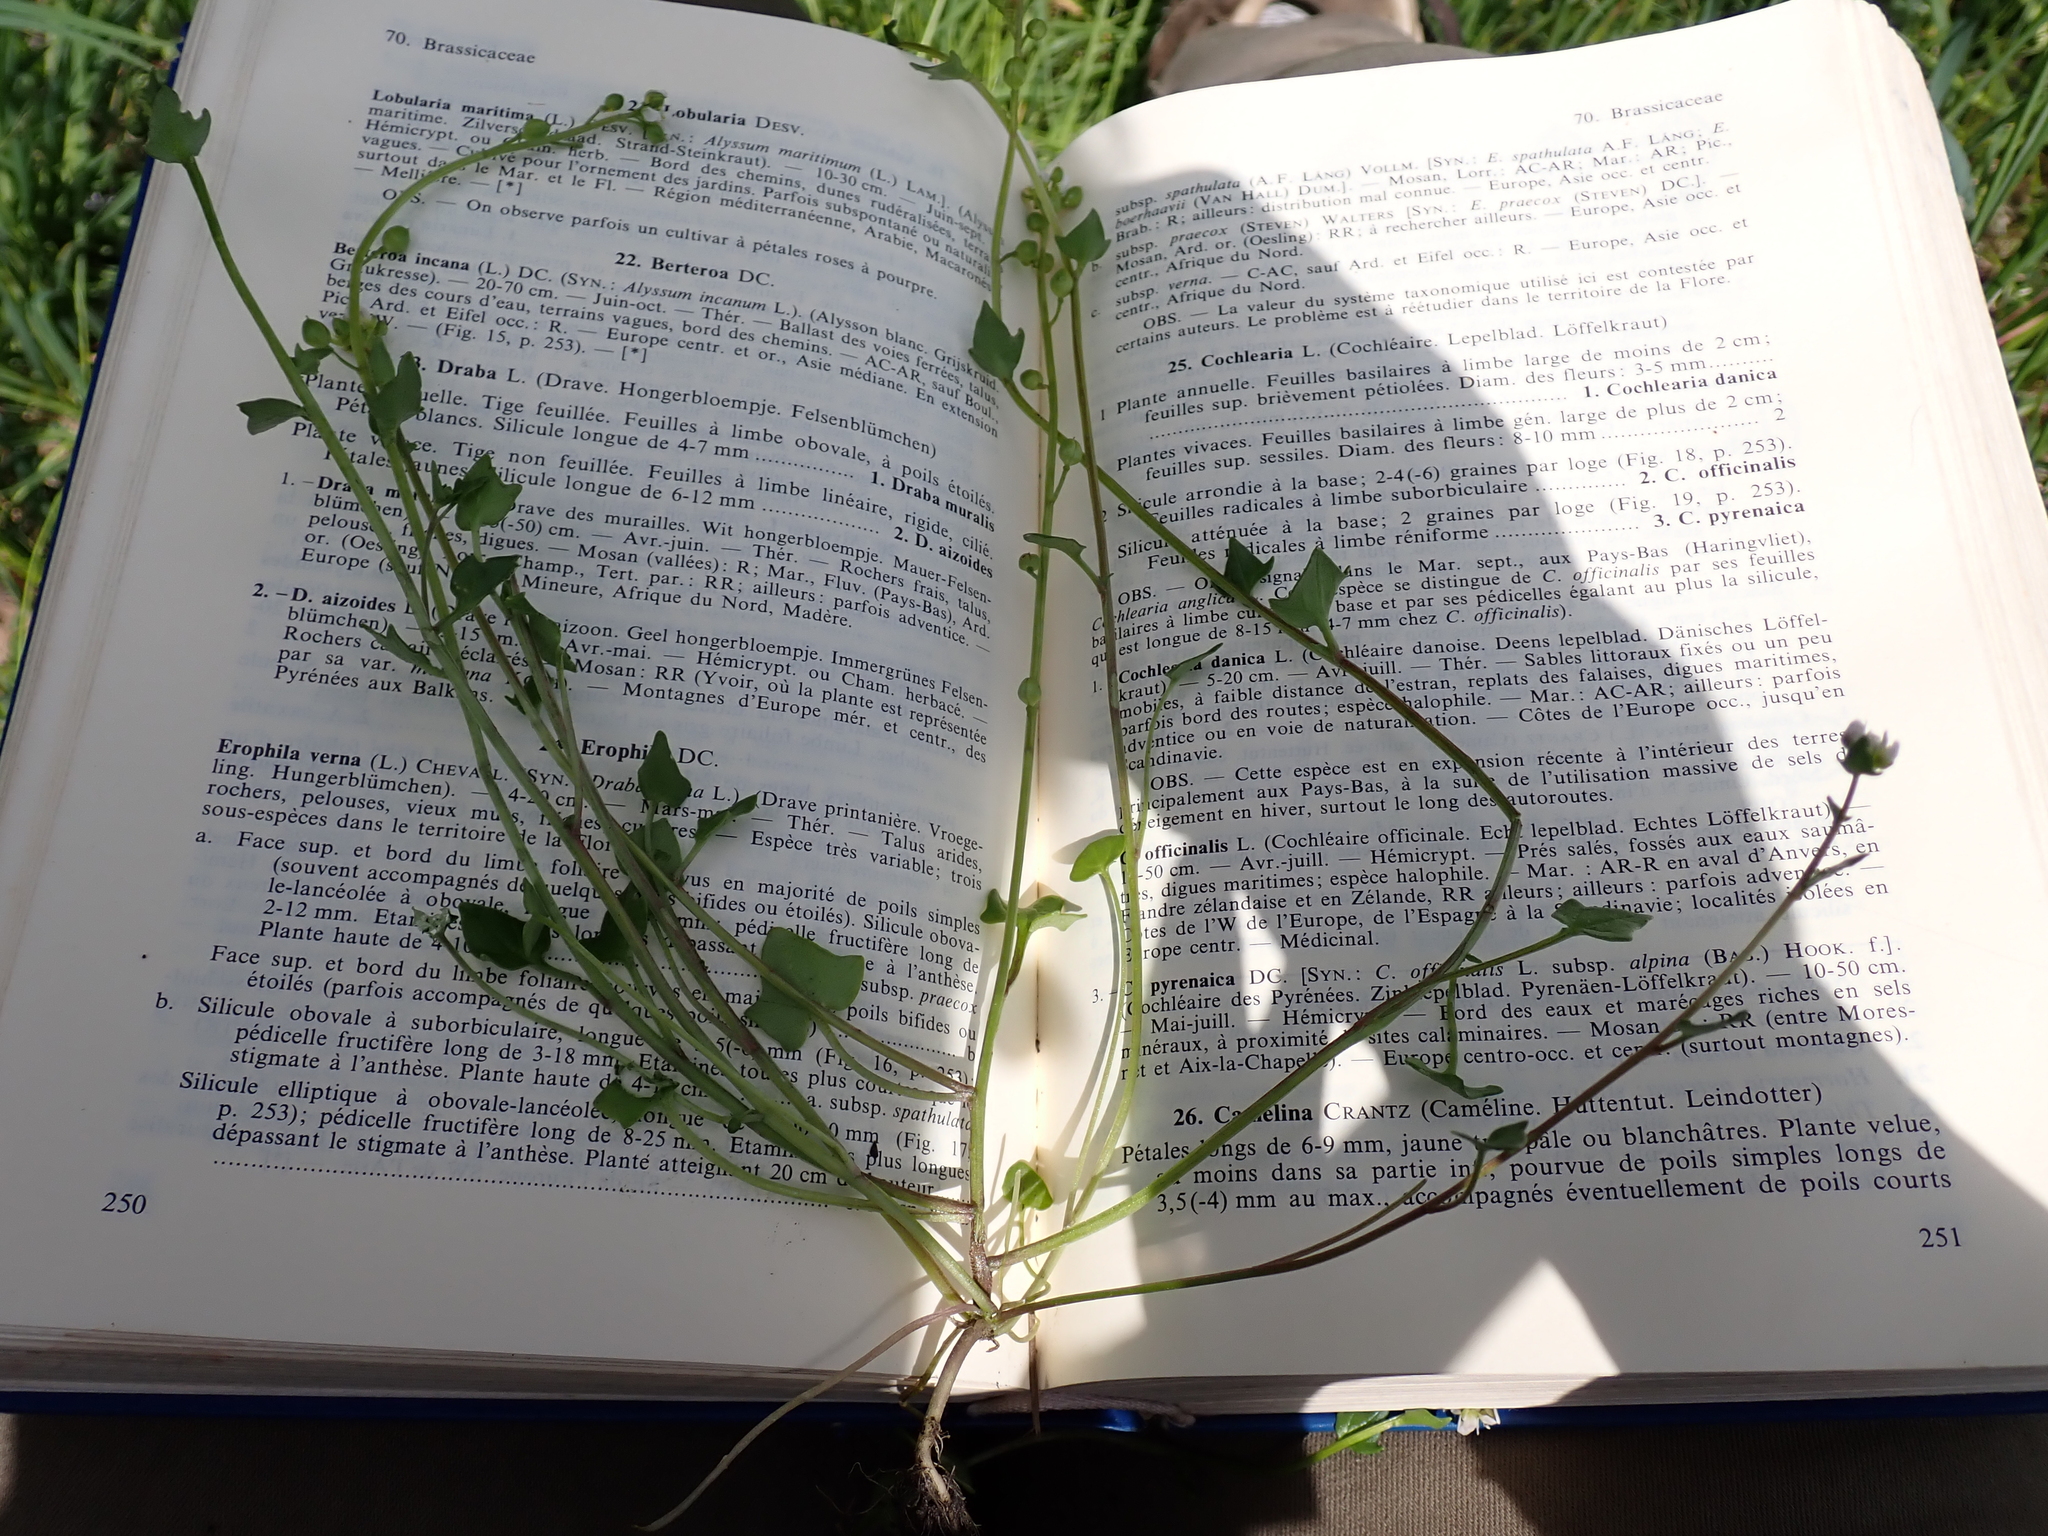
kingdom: Plantae
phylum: Tracheophyta
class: Magnoliopsida
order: Brassicales
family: Brassicaceae
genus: Cochlearia
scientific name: Cochlearia danica
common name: Early scurvygrass
